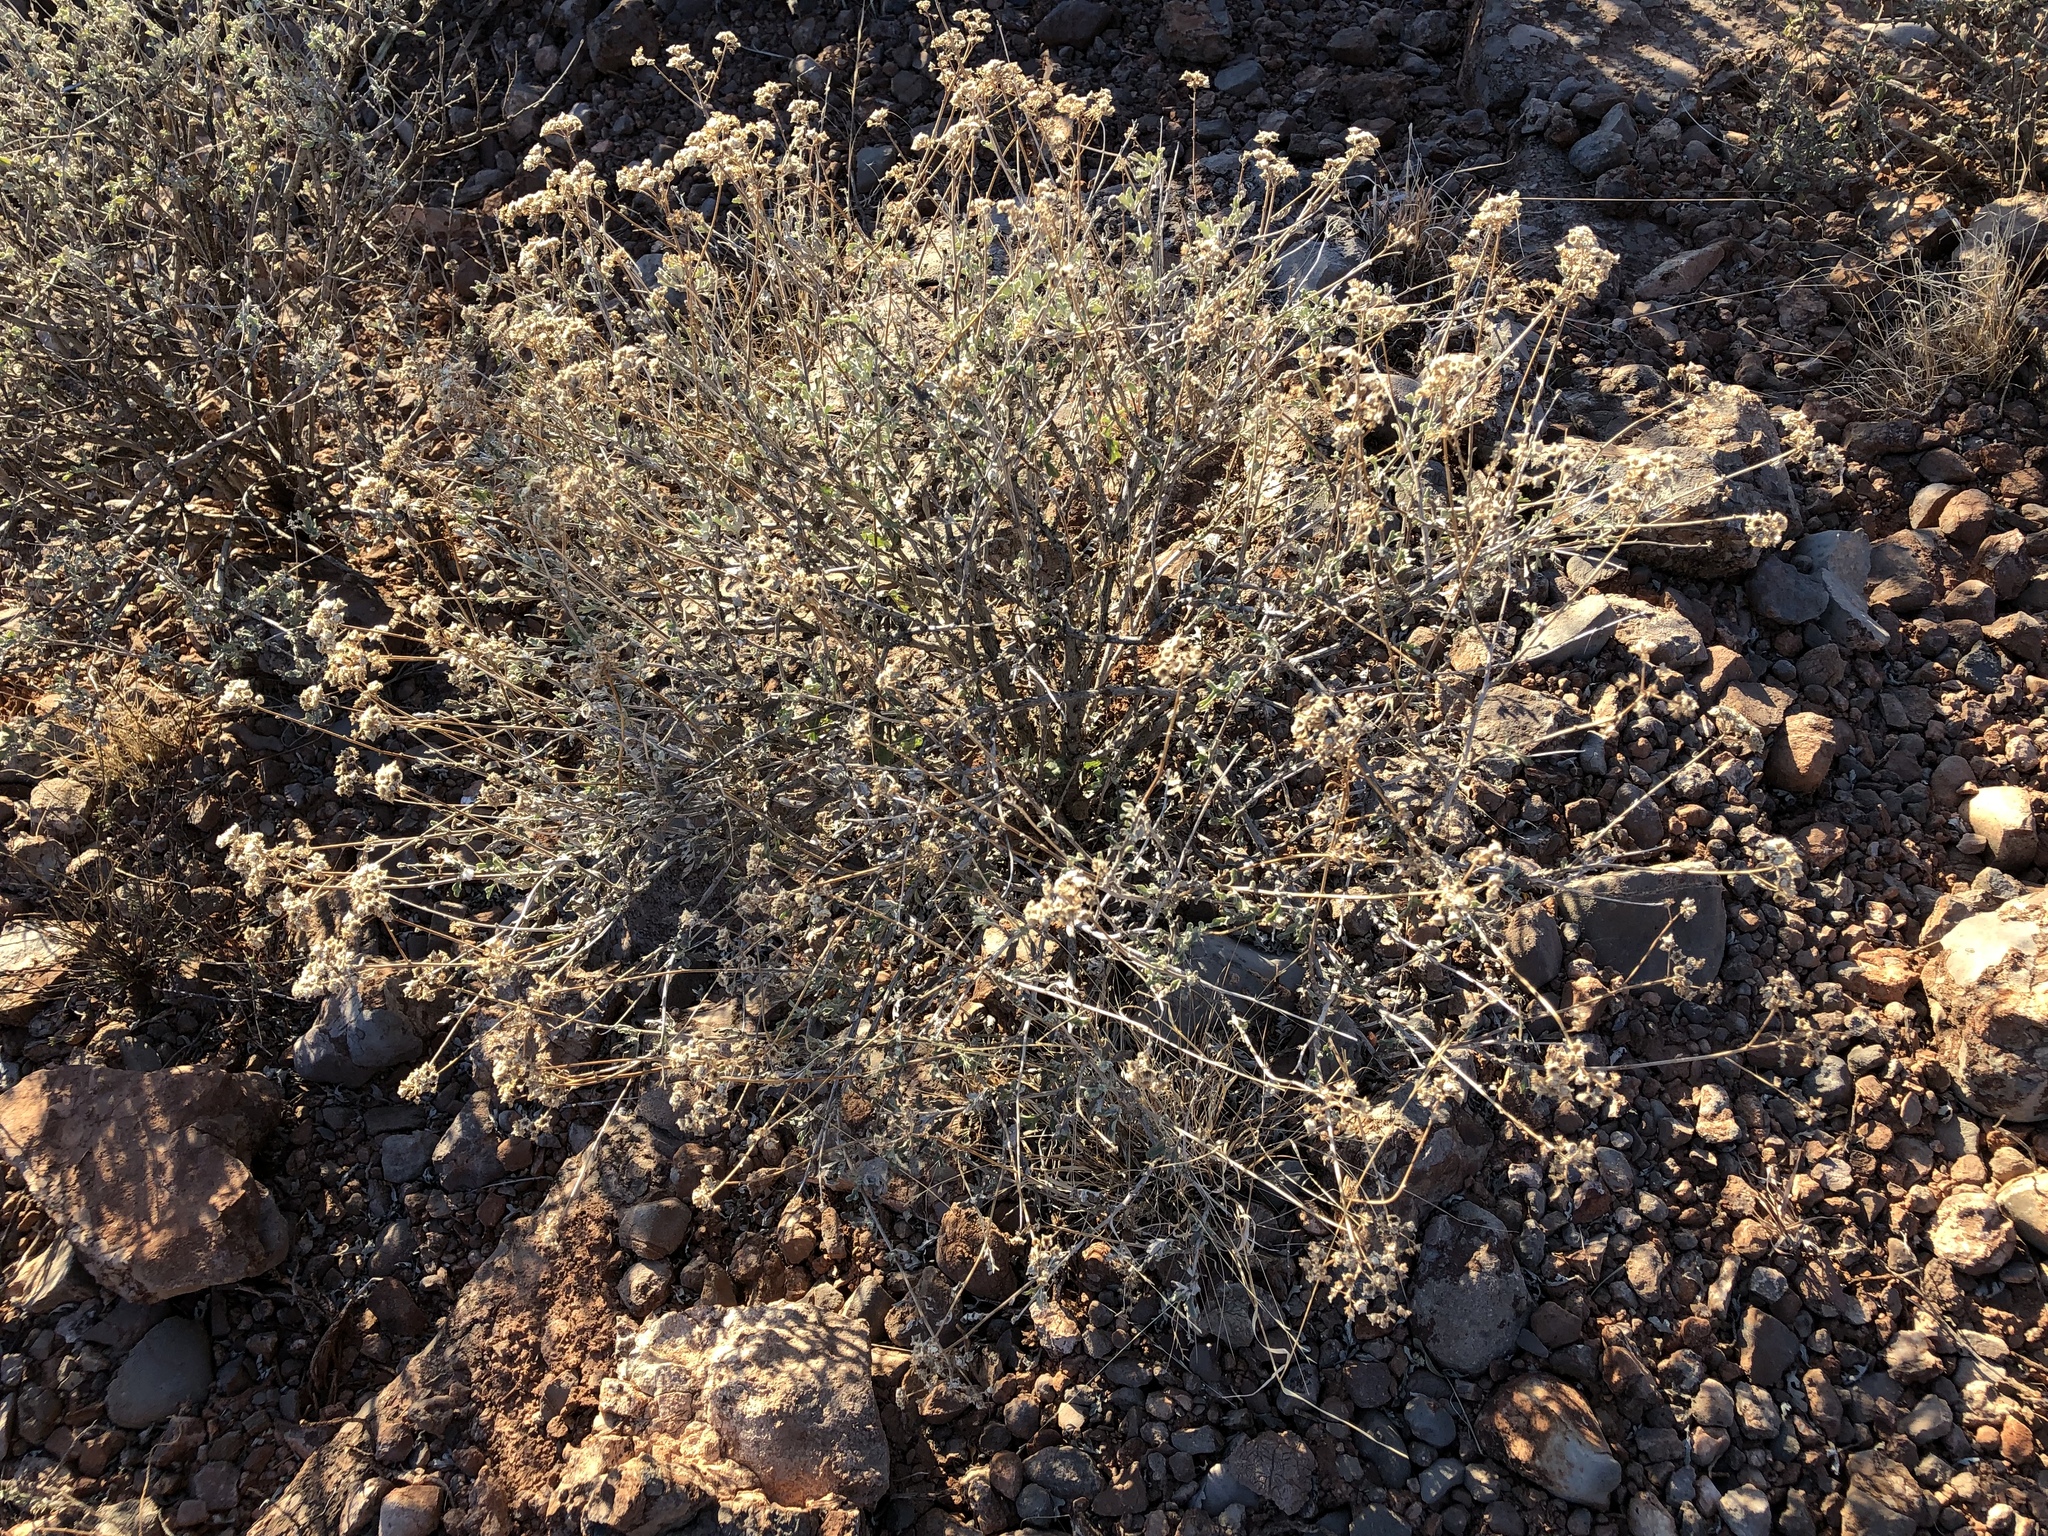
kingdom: Plantae
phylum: Tracheophyta
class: Magnoliopsida
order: Asterales
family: Asteraceae
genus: Parthenium
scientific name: Parthenium incanum
